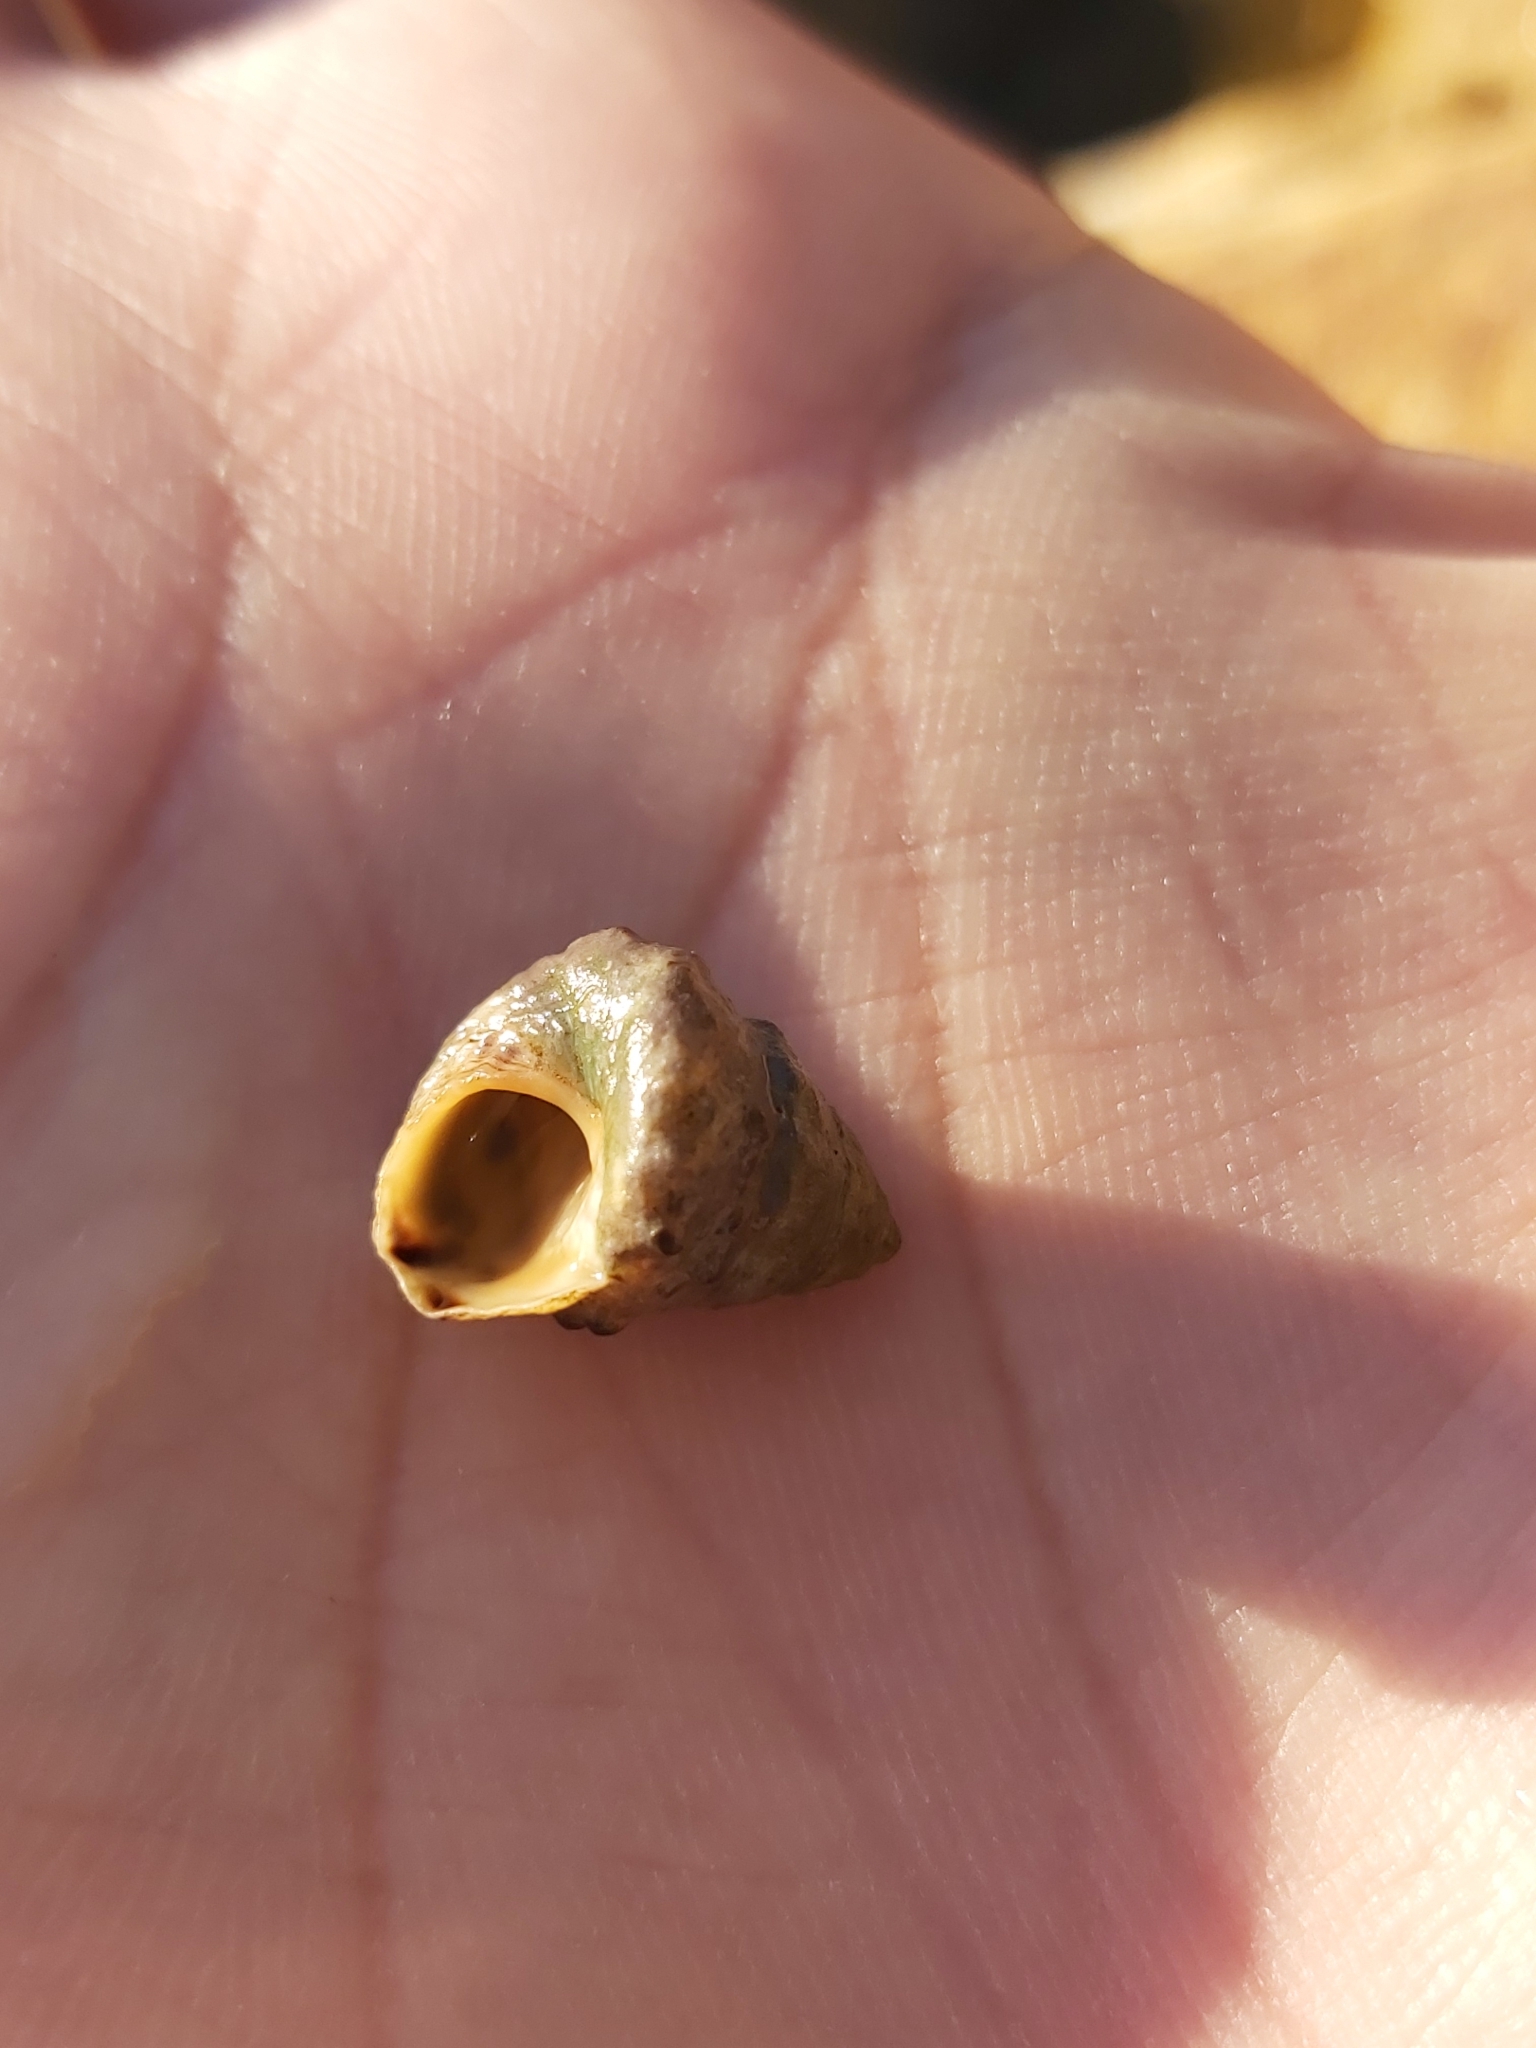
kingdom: Animalia
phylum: Mollusca
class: Gastropoda
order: Littorinimorpha
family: Littorinidae
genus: Bembicium
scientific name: Bembicium auratum
